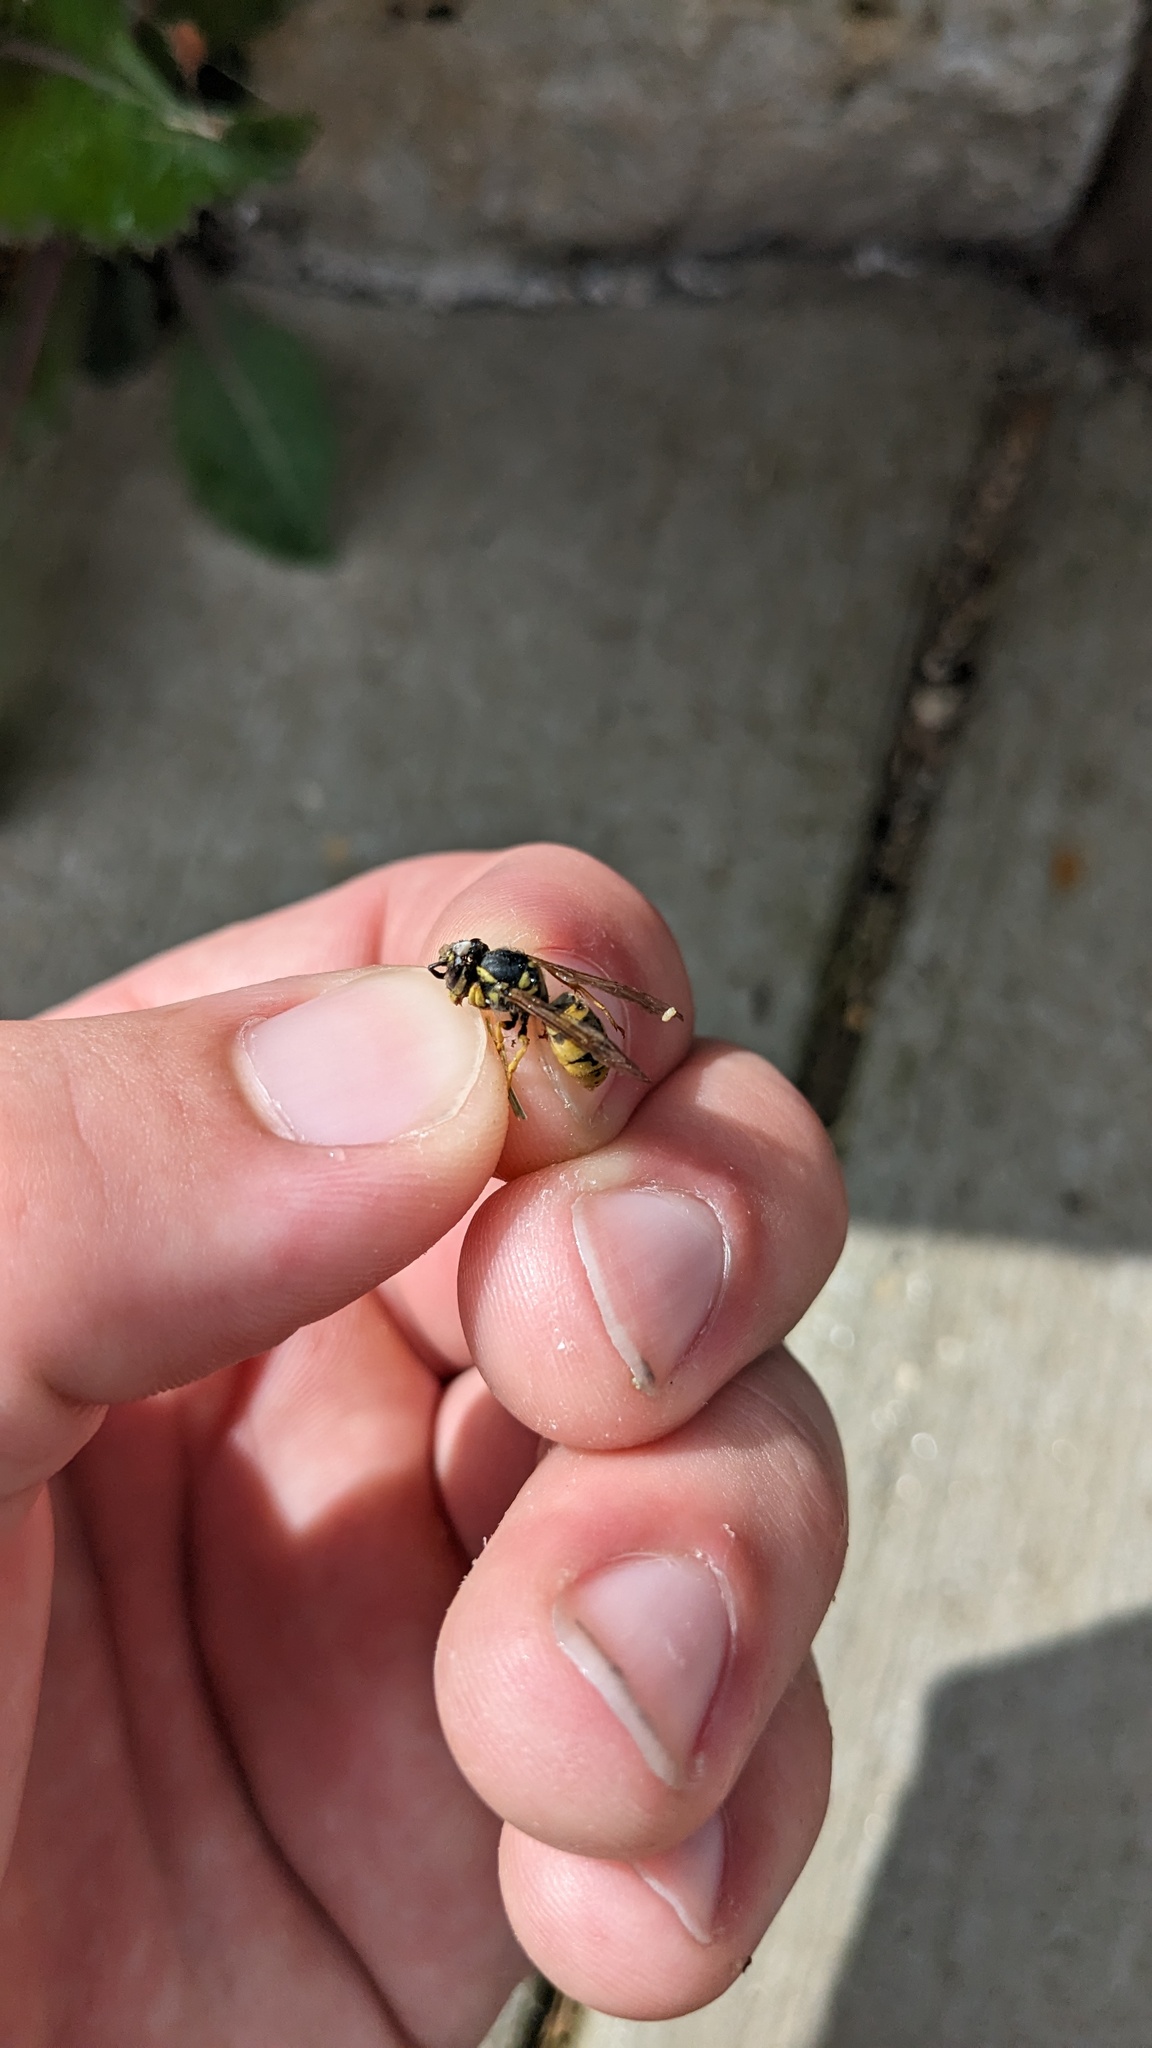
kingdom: Animalia
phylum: Arthropoda
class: Insecta
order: Hymenoptera
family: Vespidae
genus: Vespula
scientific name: Vespula germanica
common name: German wasp
